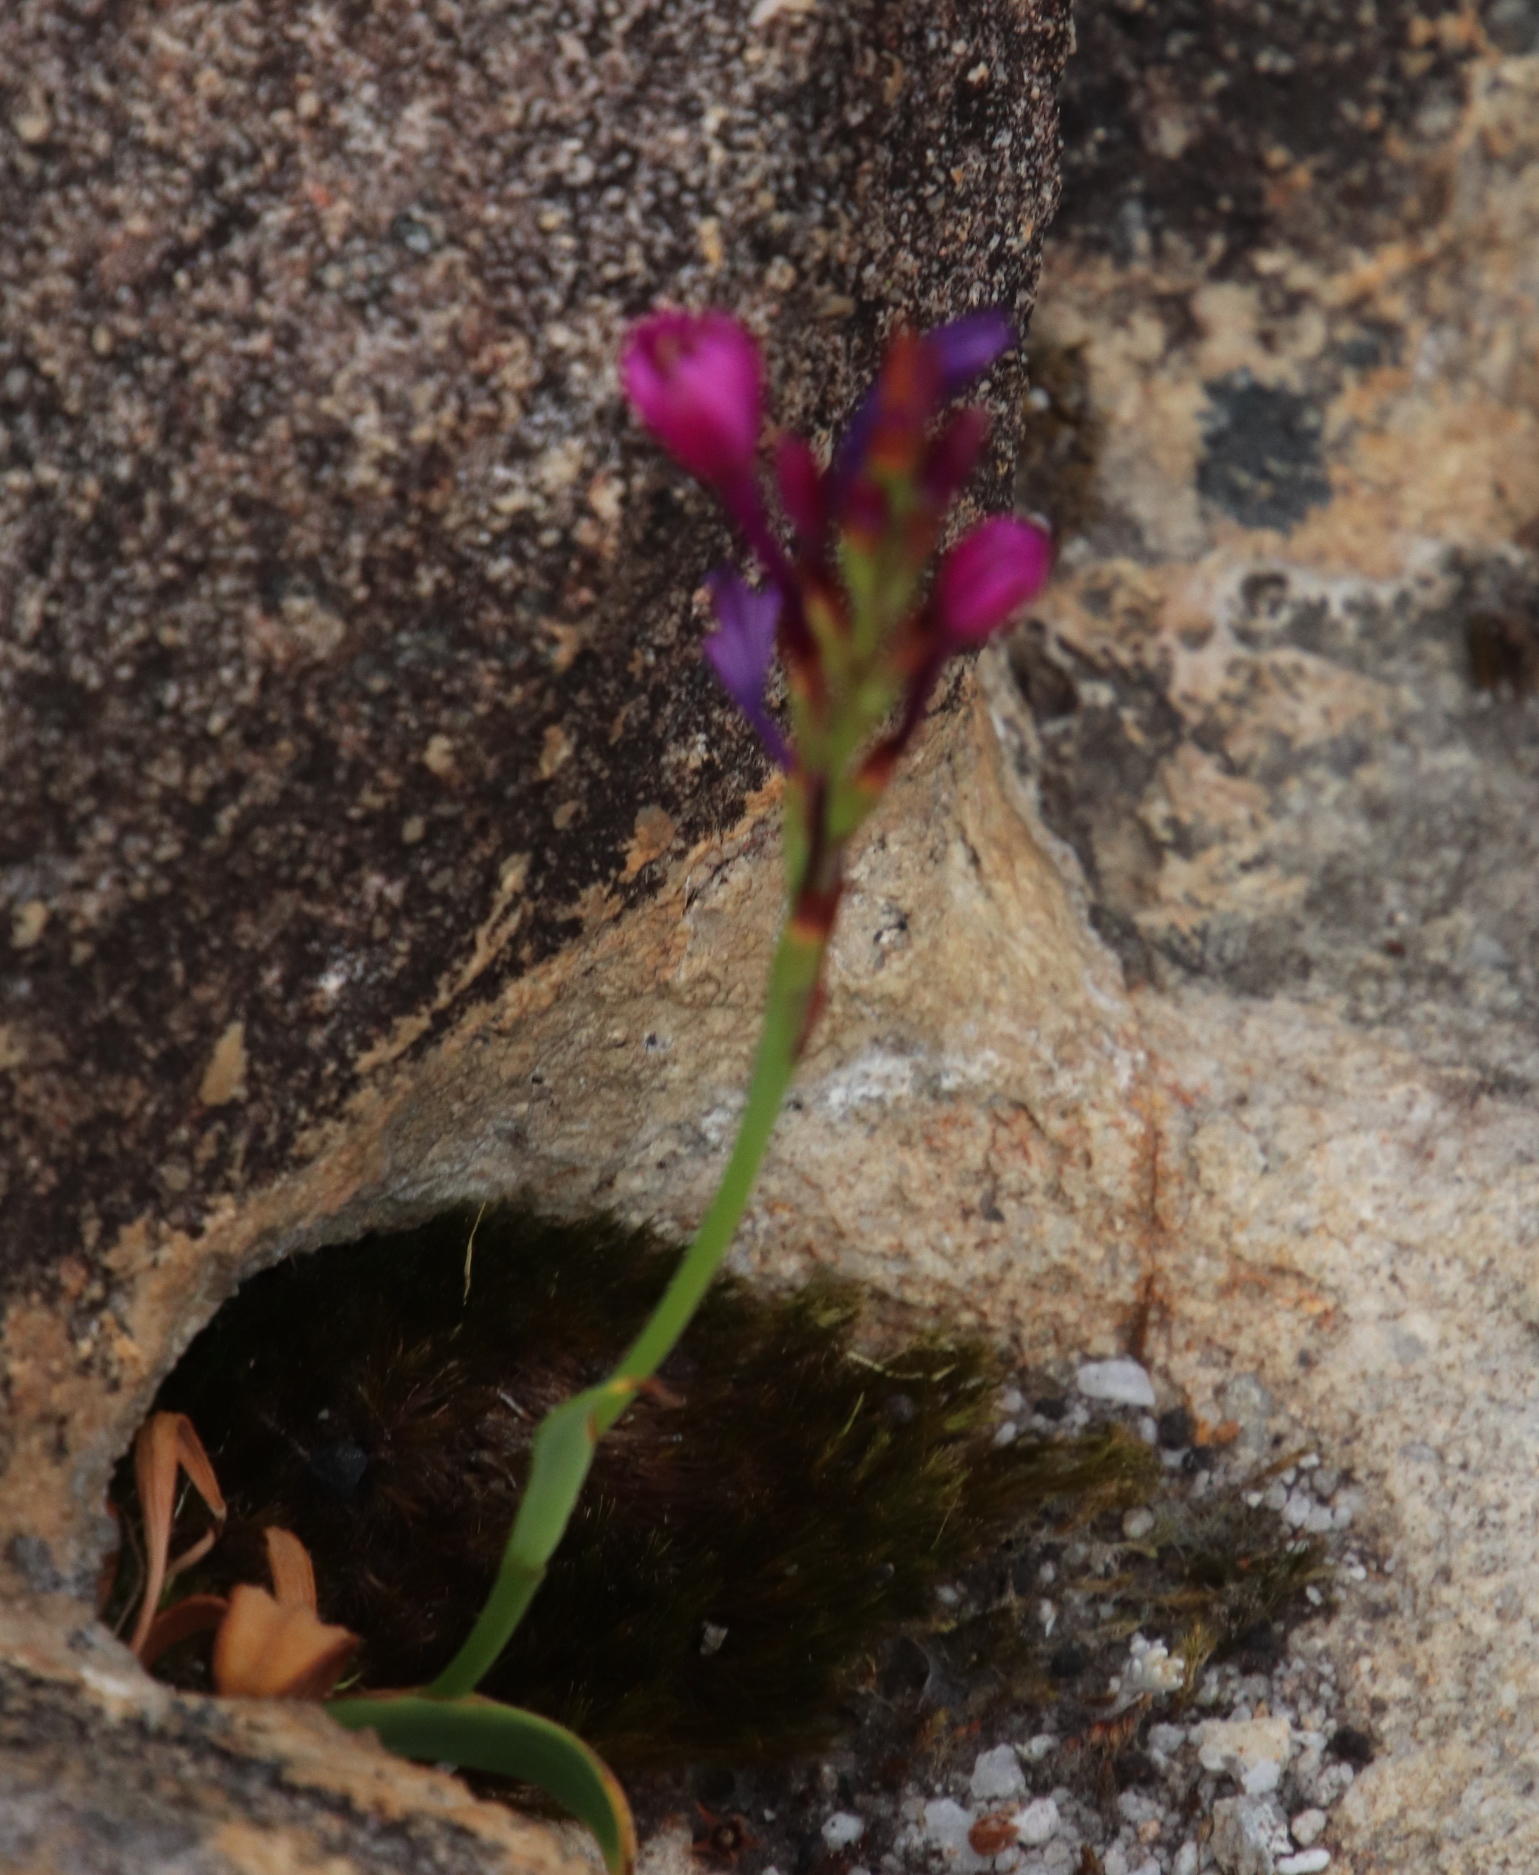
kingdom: Plantae
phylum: Tracheophyta
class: Liliopsida
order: Asparagales
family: Iridaceae
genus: Thereianthus
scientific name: Thereianthus minutus
